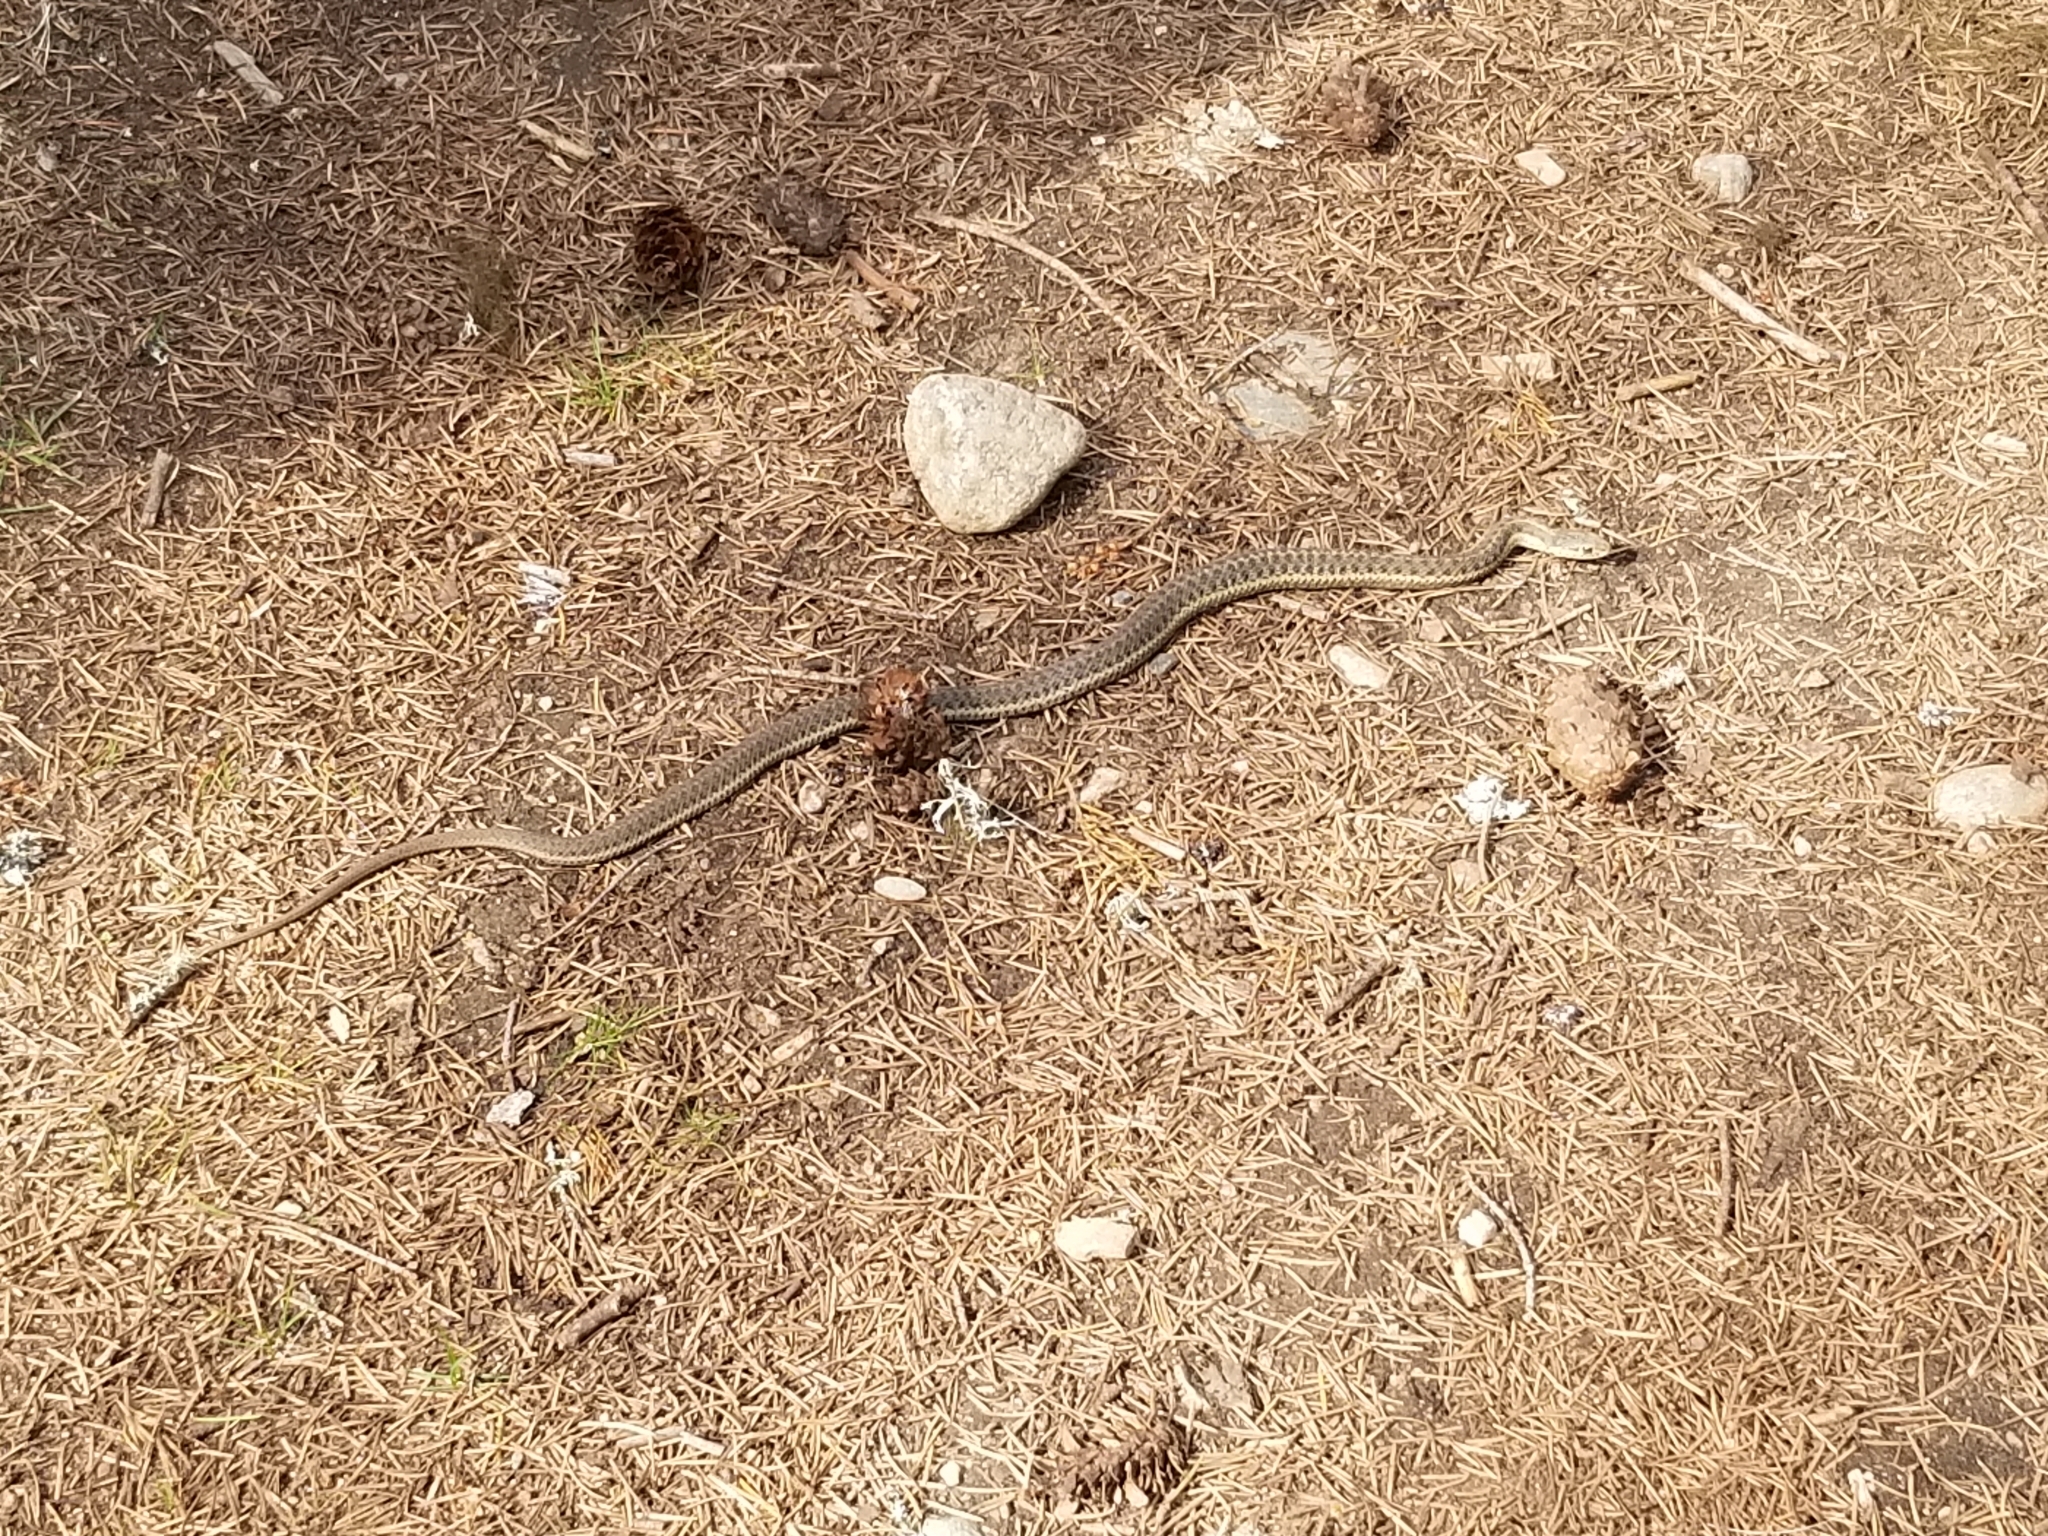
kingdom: Animalia
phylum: Chordata
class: Squamata
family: Colubridae
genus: Thamnophis
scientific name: Thamnophis elegans
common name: Western terrestrial garter snake
